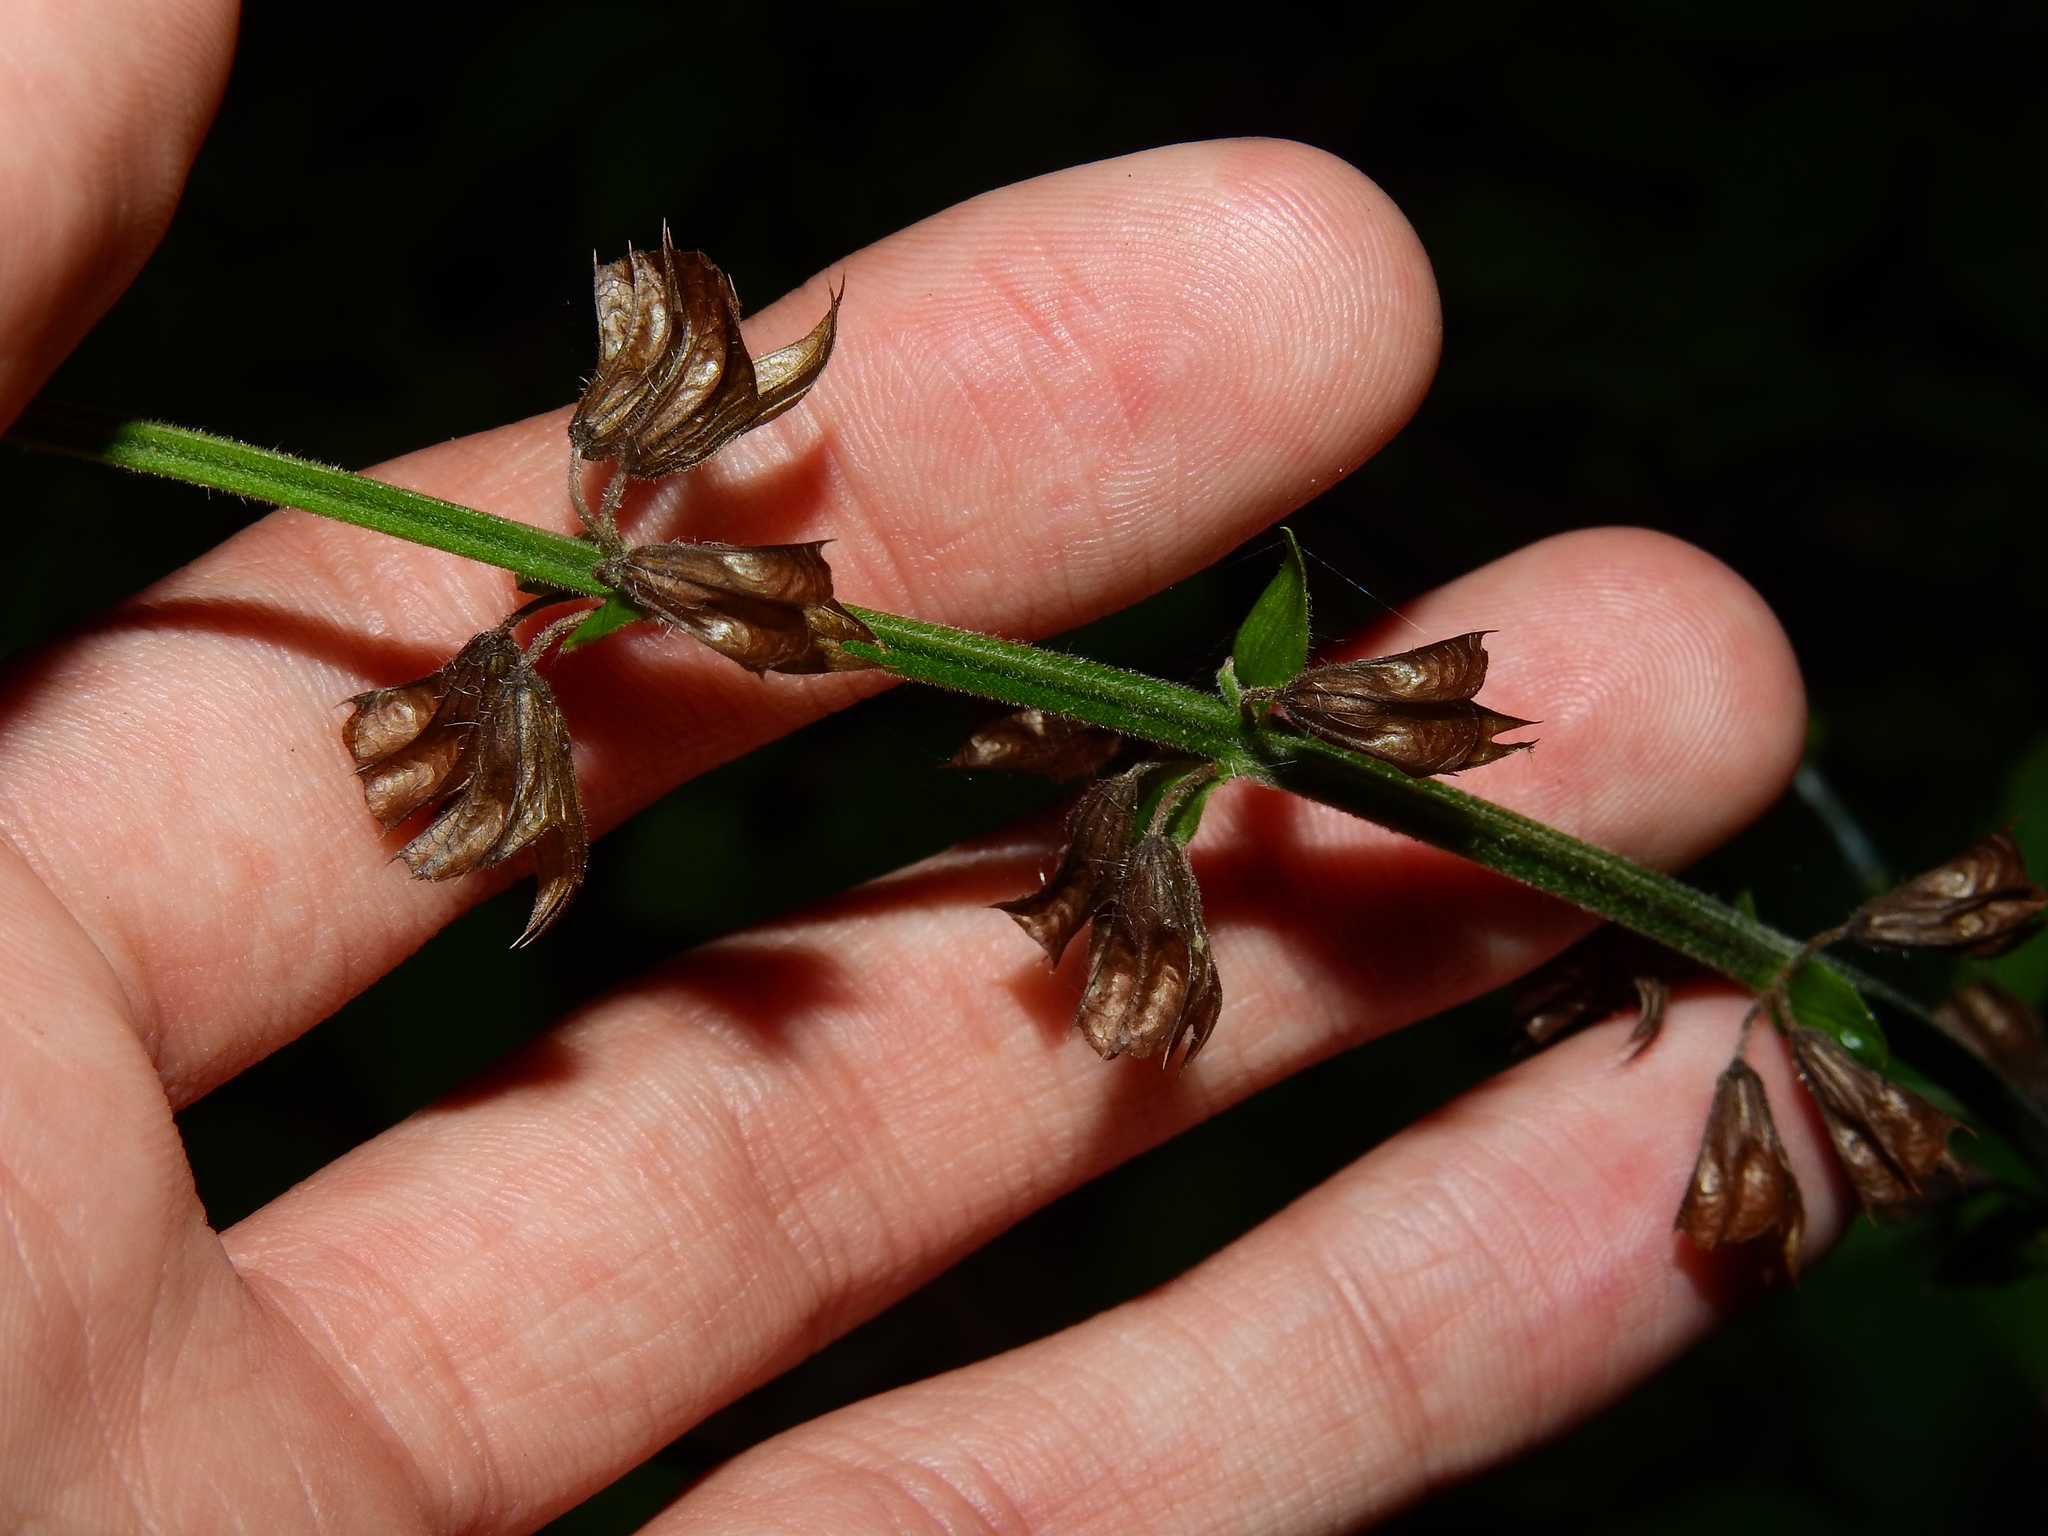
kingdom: Plantae
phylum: Tracheophyta
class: Magnoliopsida
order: Lamiales
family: Lamiaceae
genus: Salvia
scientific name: Salvia lyrata
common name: Cancerweed
